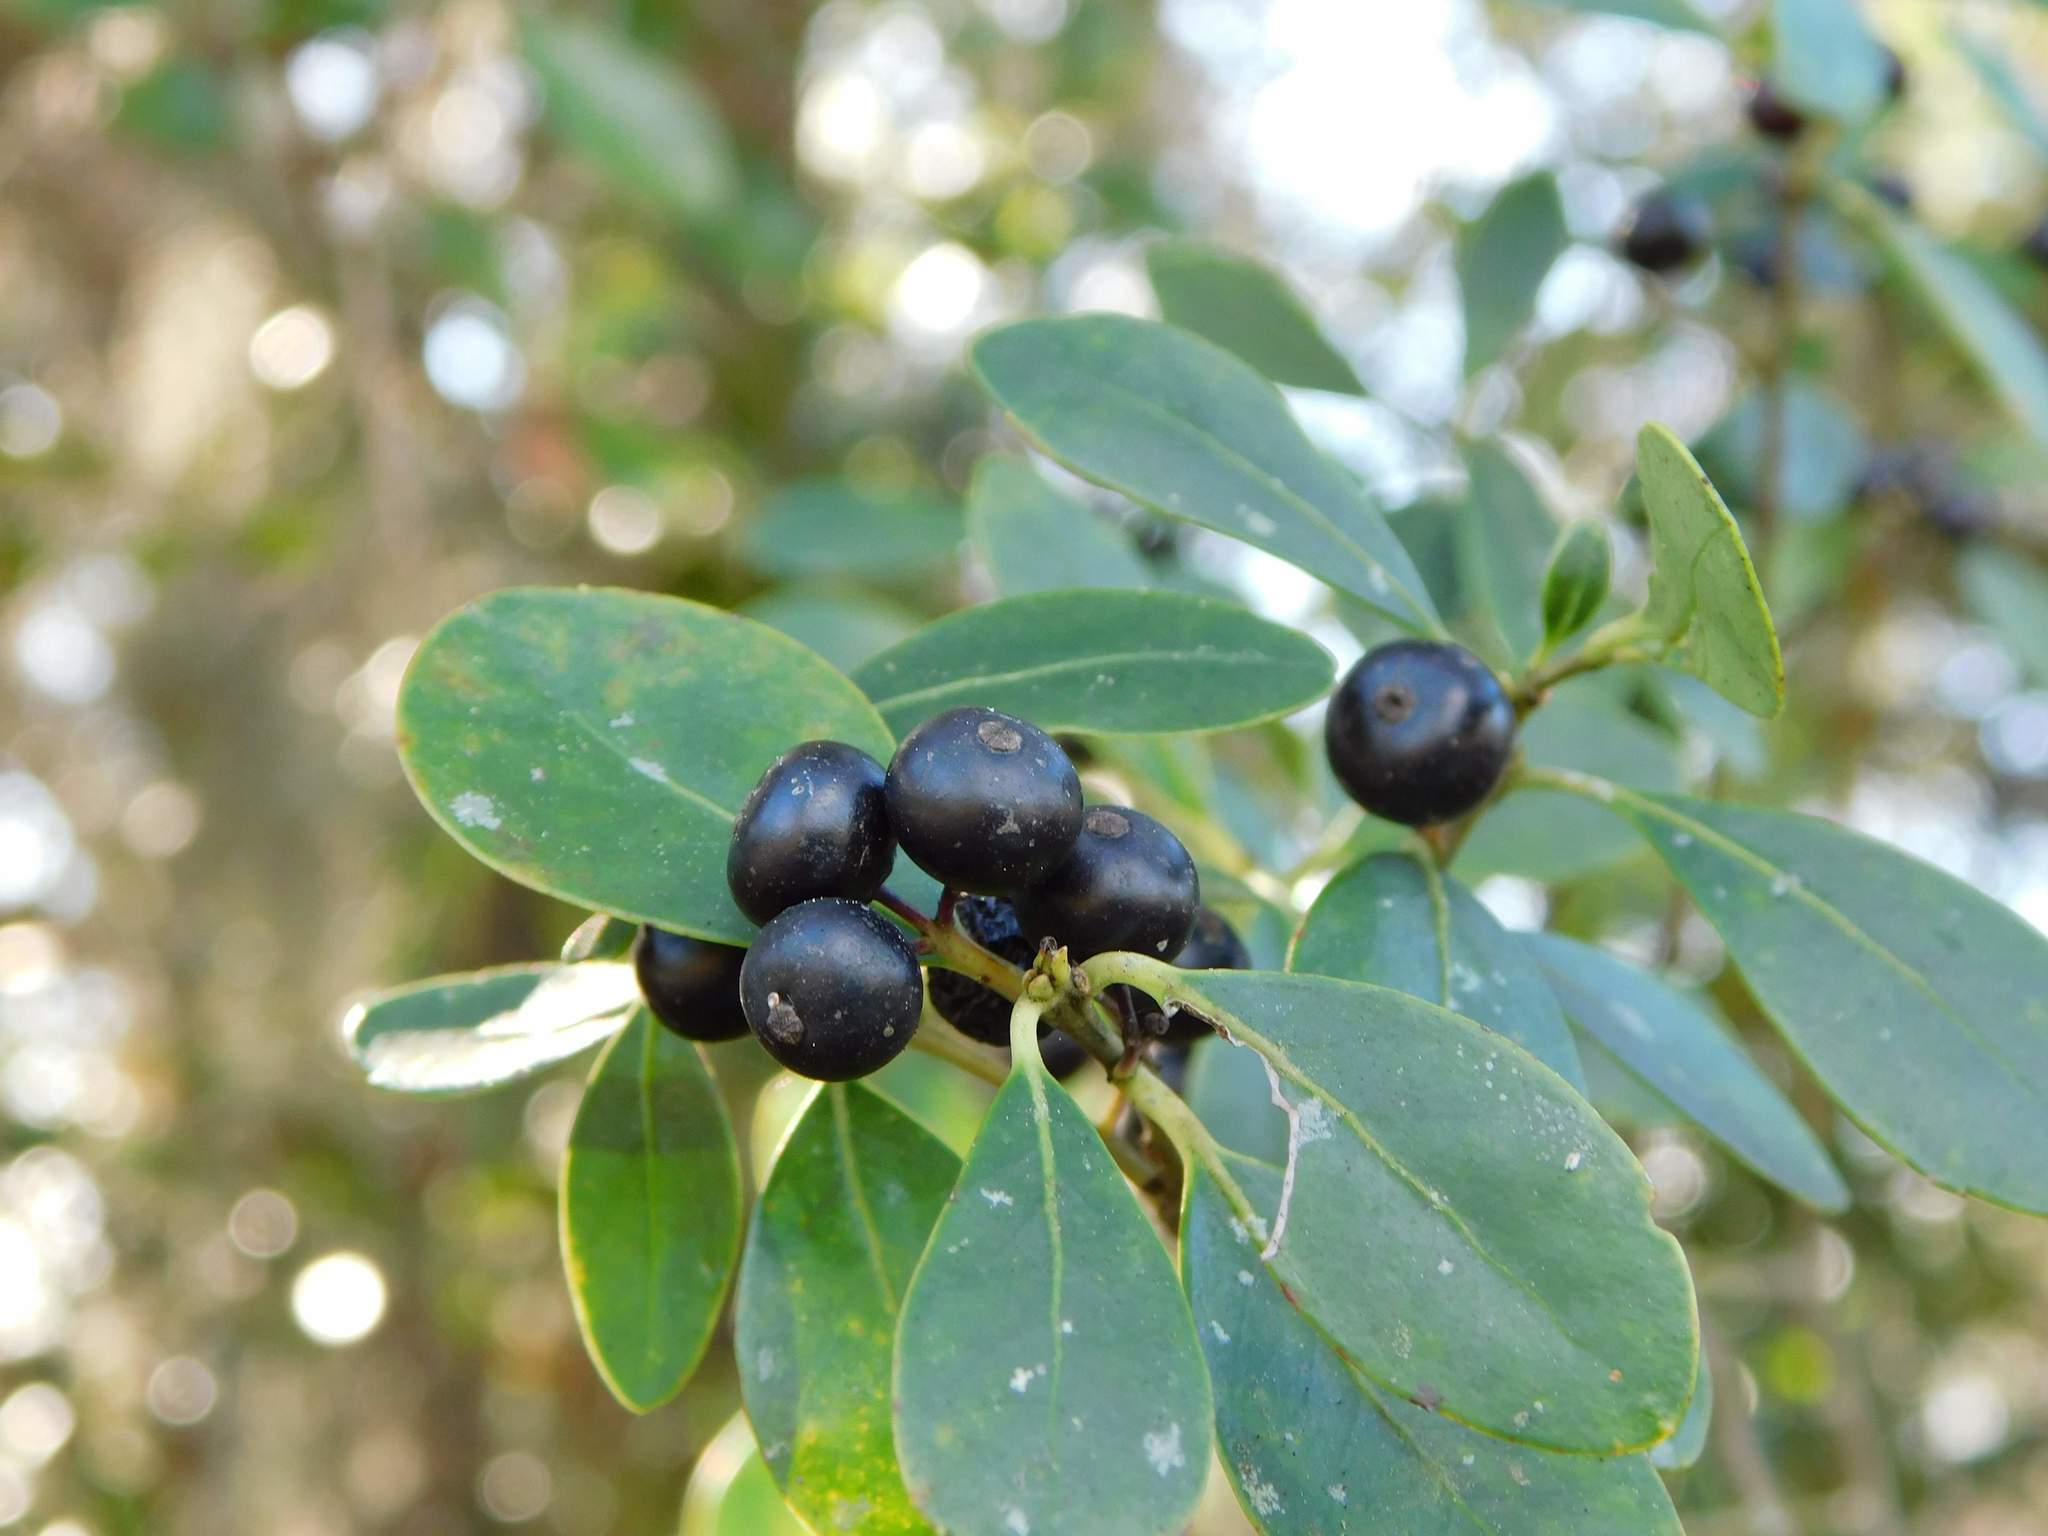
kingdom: Plantae
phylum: Tracheophyta
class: Magnoliopsida
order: Aquifoliales
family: Aquifoliaceae
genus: Ilex
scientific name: Ilex glabra
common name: Bitter gallberry
